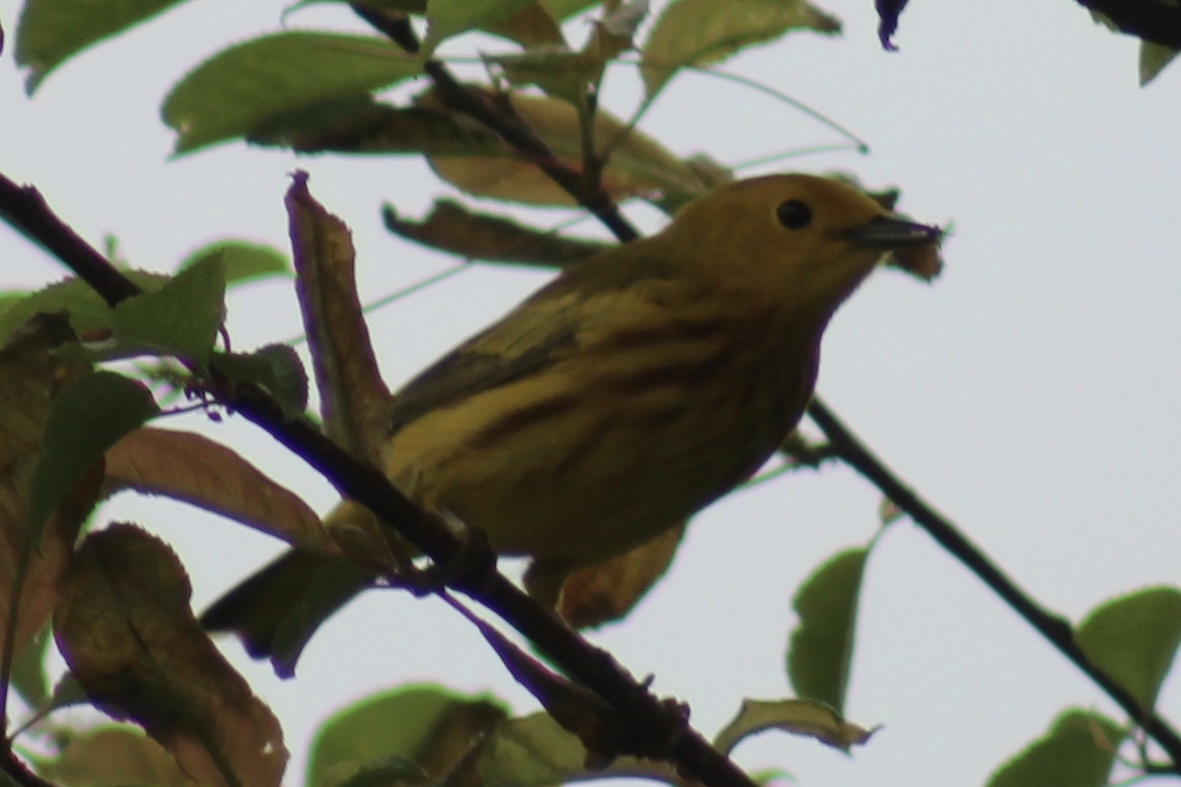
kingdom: Animalia
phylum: Chordata
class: Aves
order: Passeriformes
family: Parulidae
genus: Setophaga
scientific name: Setophaga petechia
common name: Yellow warbler
